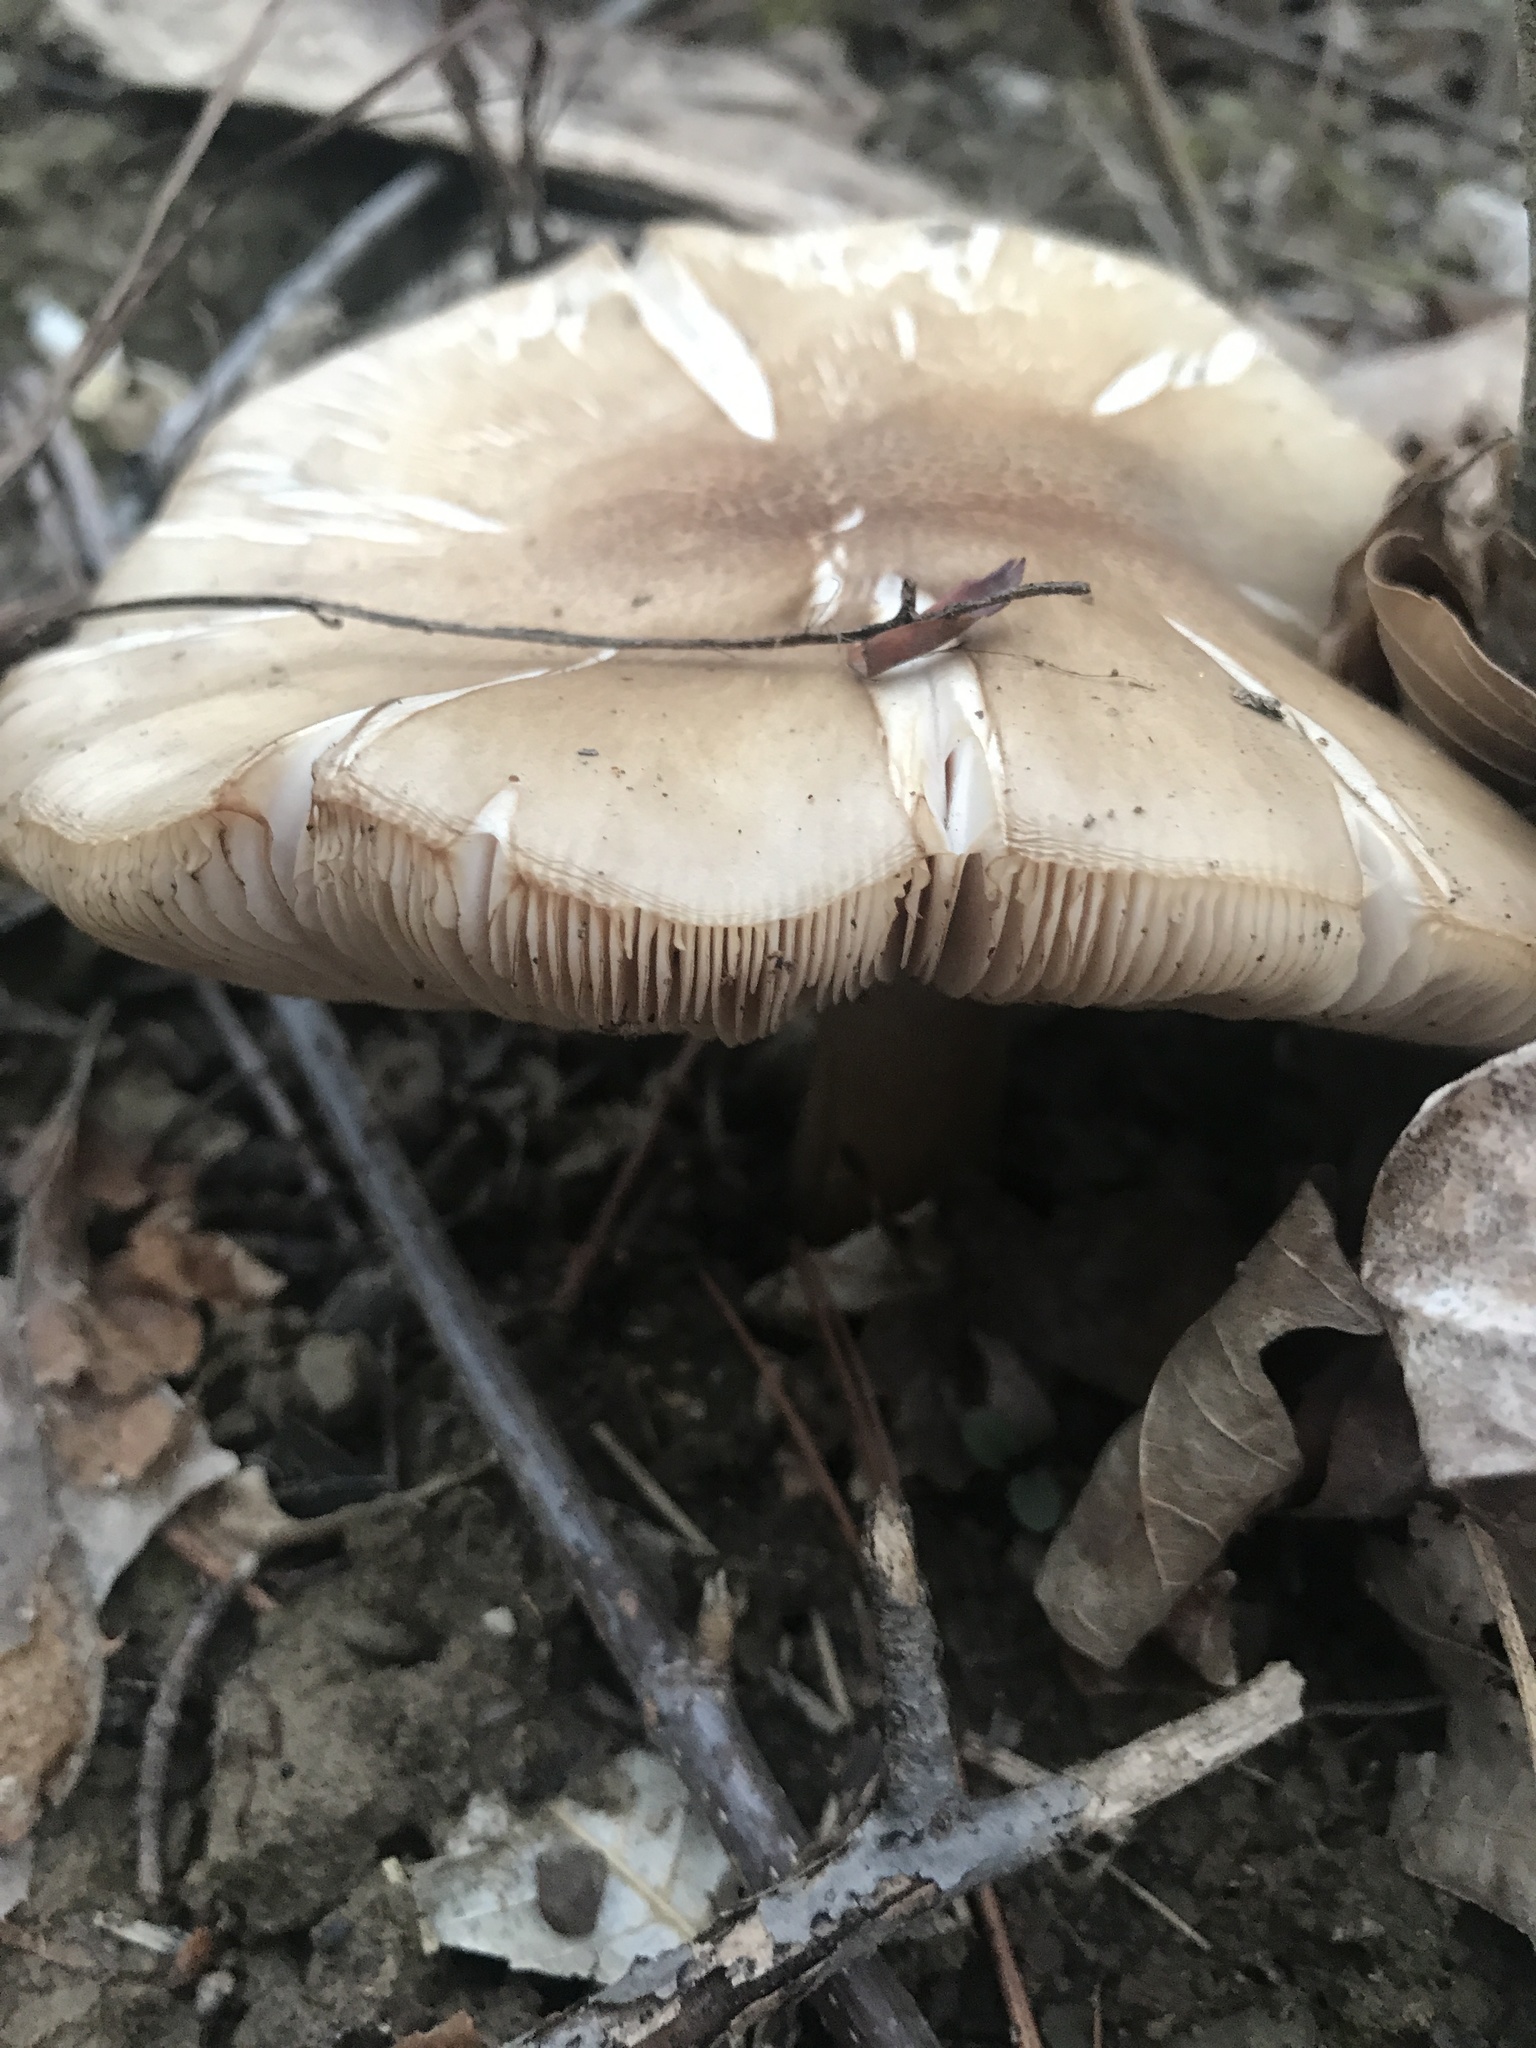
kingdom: Fungi
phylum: Basidiomycota
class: Agaricomycetes
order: Agaricales
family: Pluteaceae
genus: Pluteus
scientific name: Pluteus cervinus
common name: Deer shield
